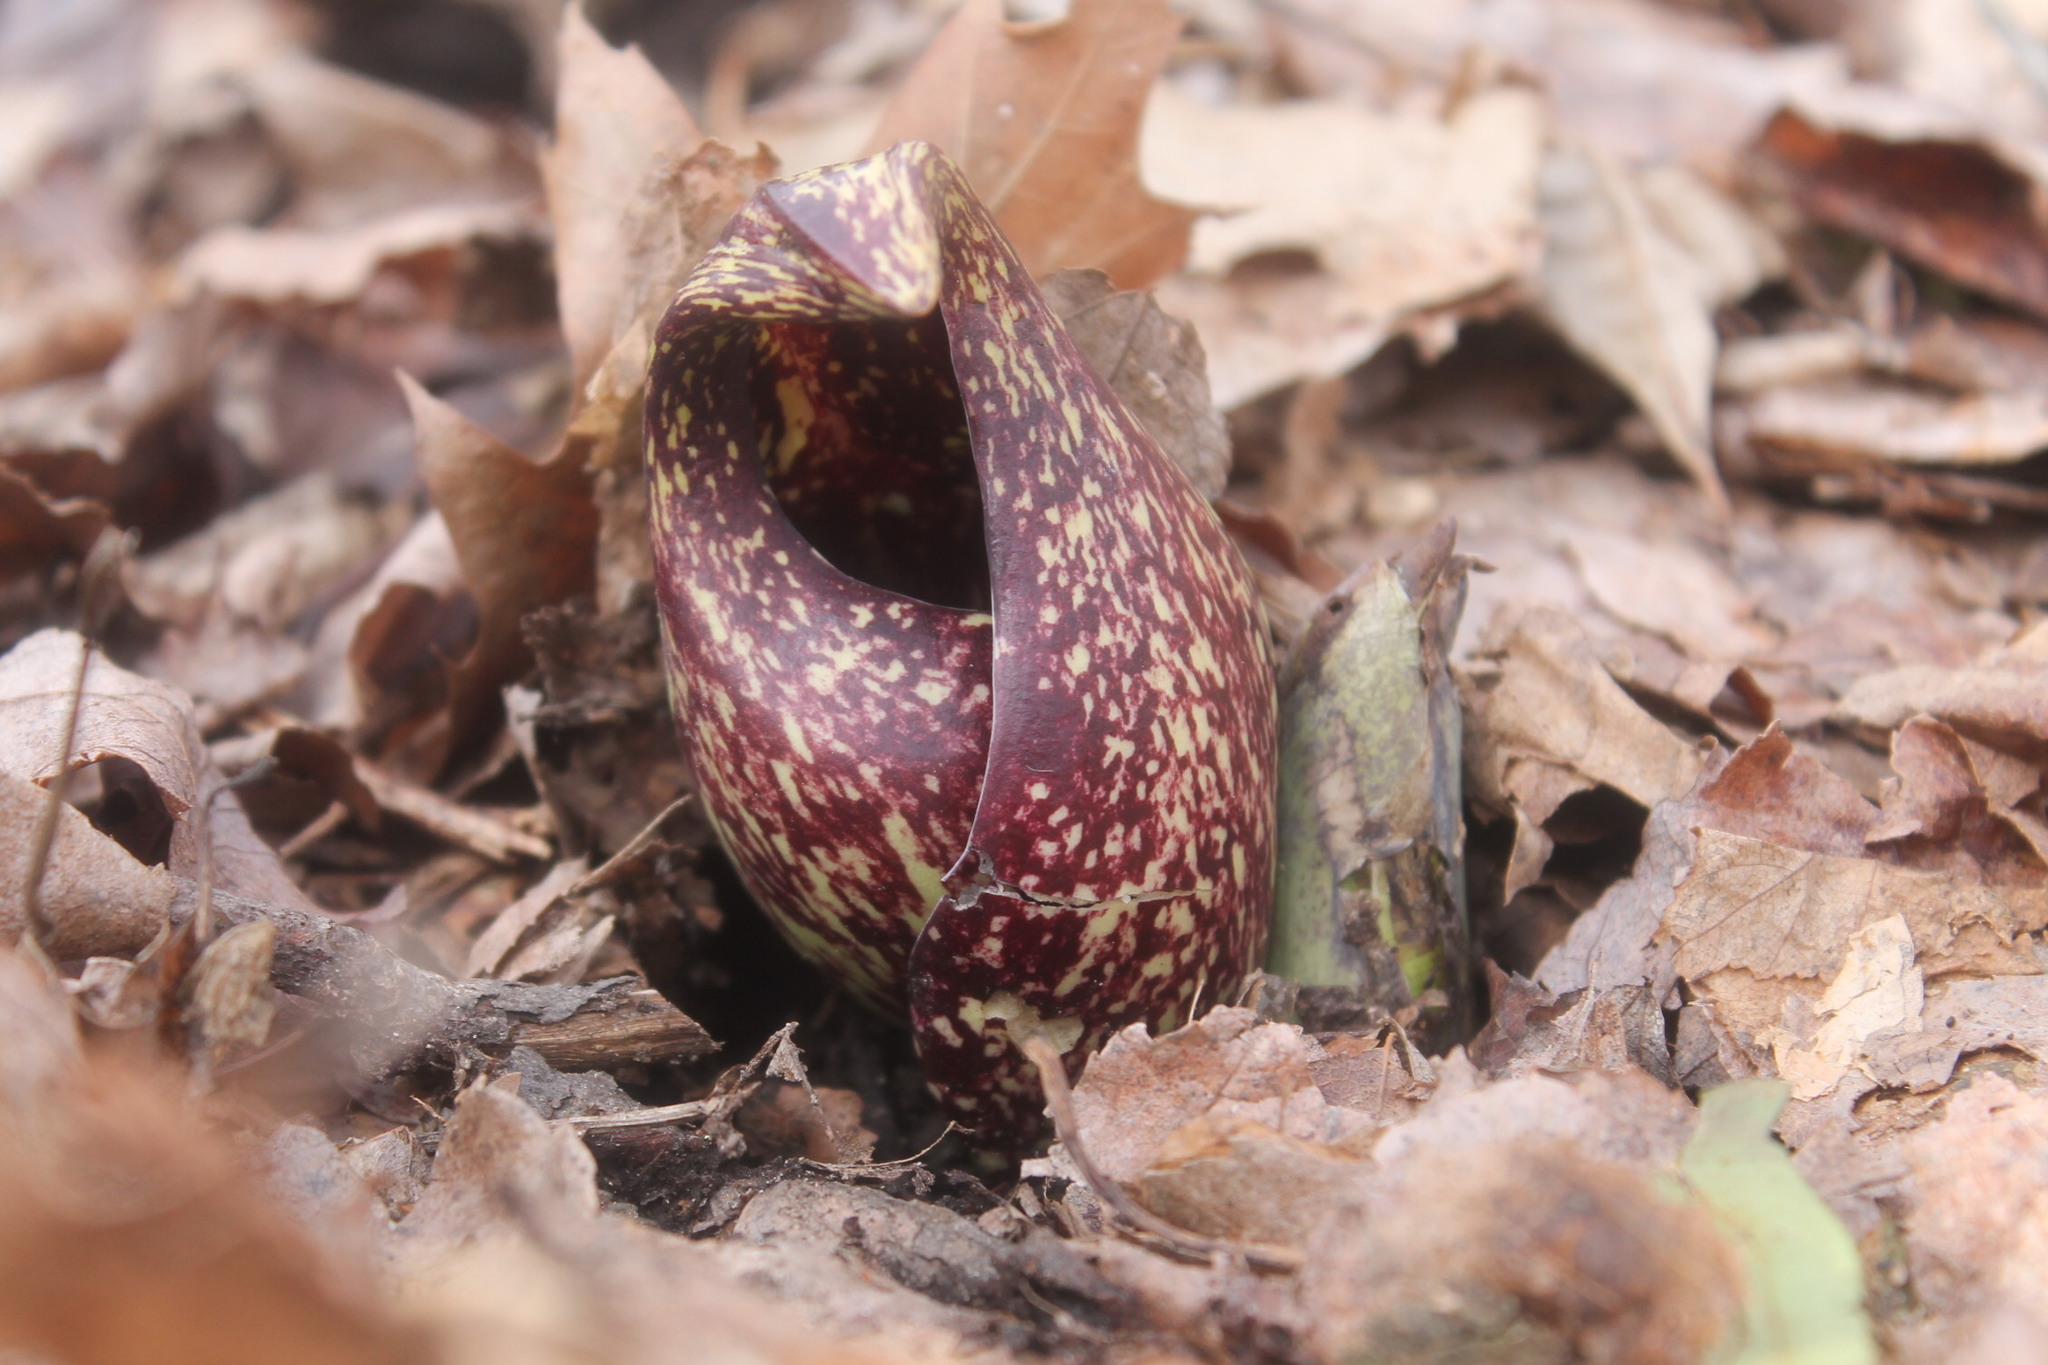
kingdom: Plantae
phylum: Tracheophyta
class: Liliopsida
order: Alismatales
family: Araceae
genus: Symplocarpus
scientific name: Symplocarpus foetidus
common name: Eastern skunk cabbage
